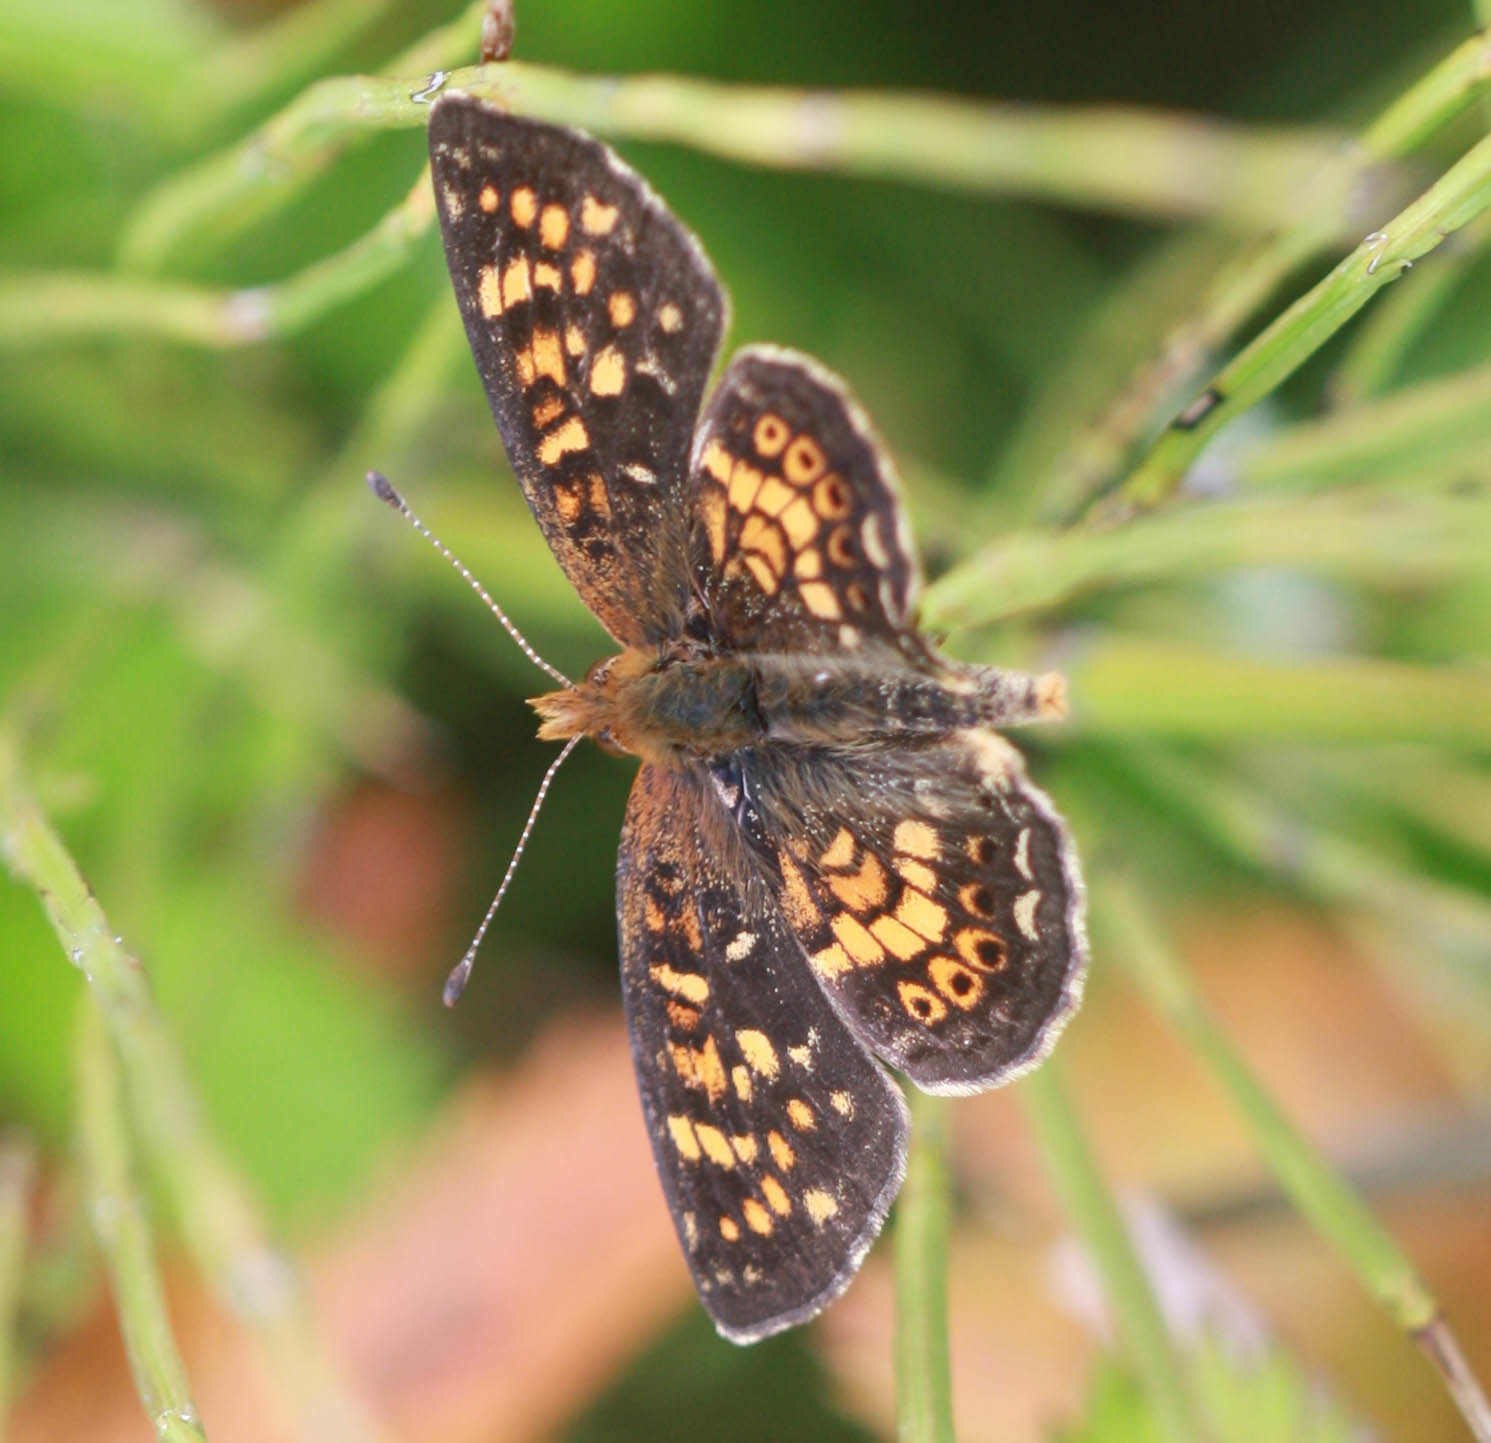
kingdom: Animalia
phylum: Arthropoda
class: Insecta
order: Lepidoptera
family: Nymphalidae
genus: Phyciodes
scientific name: Phyciodes tharos
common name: Pearl crescent
